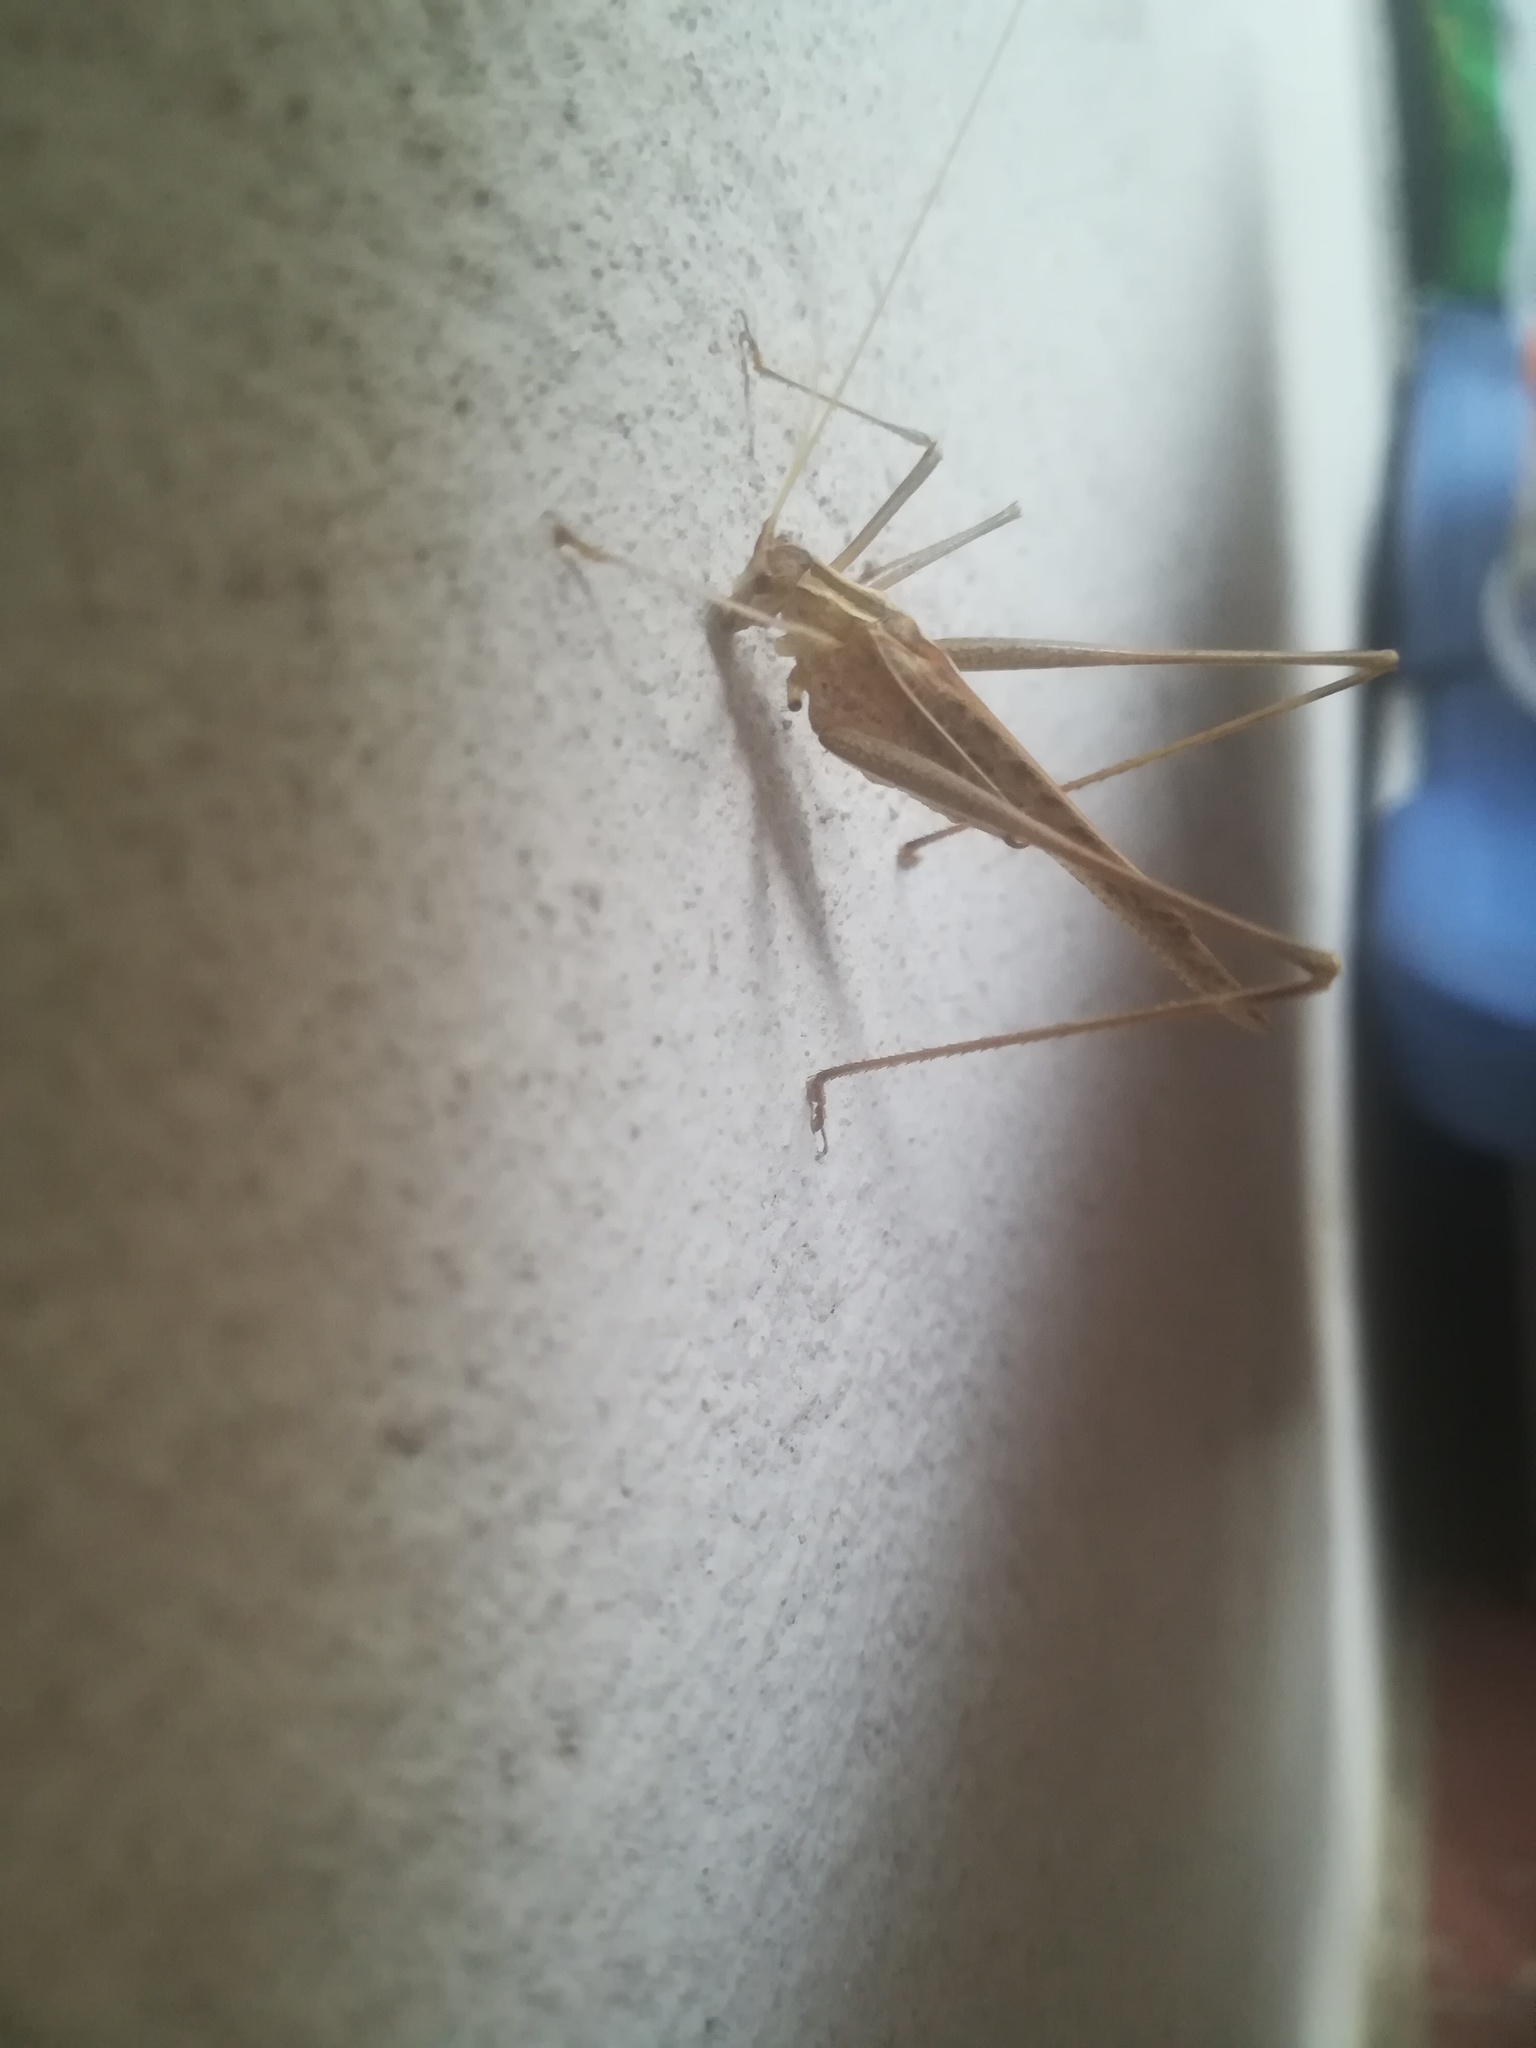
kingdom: Animalia
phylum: Arthropoda
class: Insecta
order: Orthoptera
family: Tettigoniidae
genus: Tylopsis
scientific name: Tylopsis lilifolia
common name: Lily bush-cricket
